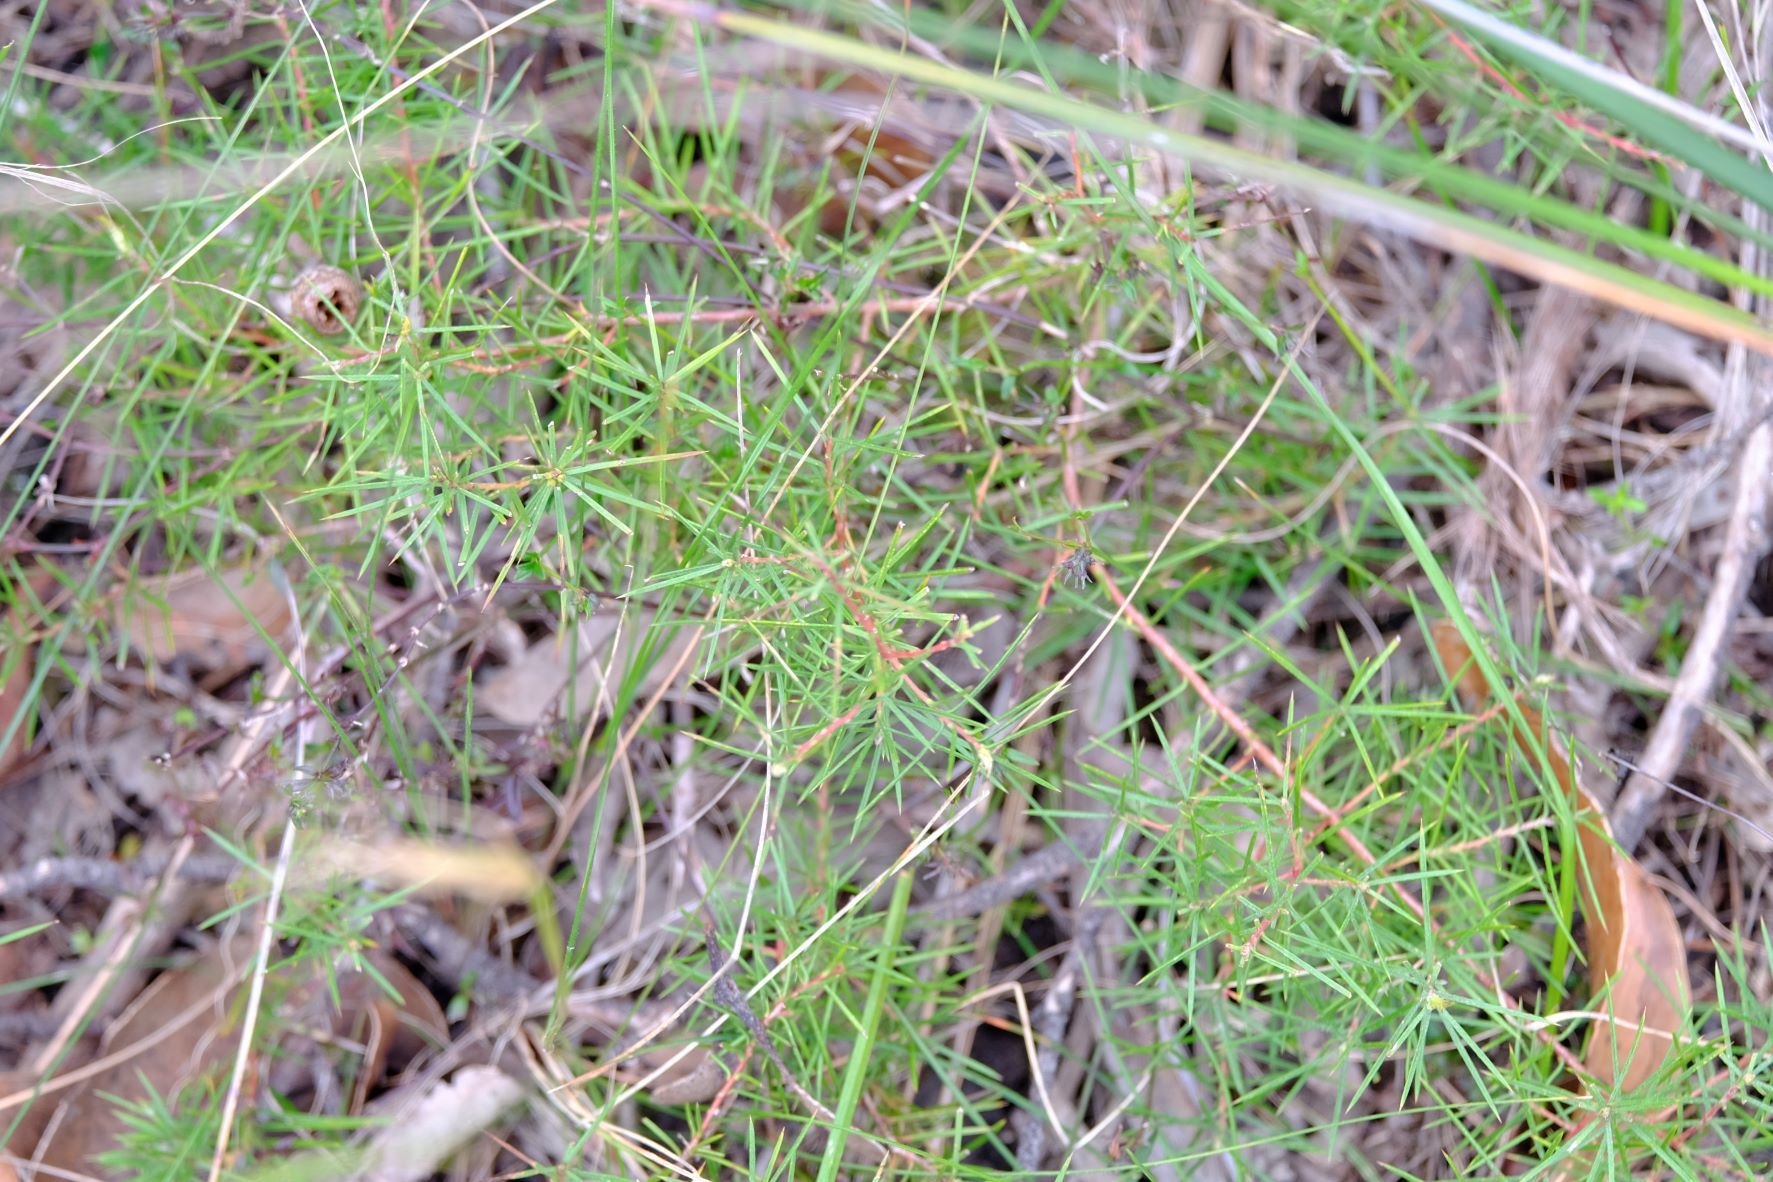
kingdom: Plantae
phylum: Tracheophyta
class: Magnoliopsida
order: Proteales
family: Proteaceae
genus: Persoonia
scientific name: Persoonia juniperina
